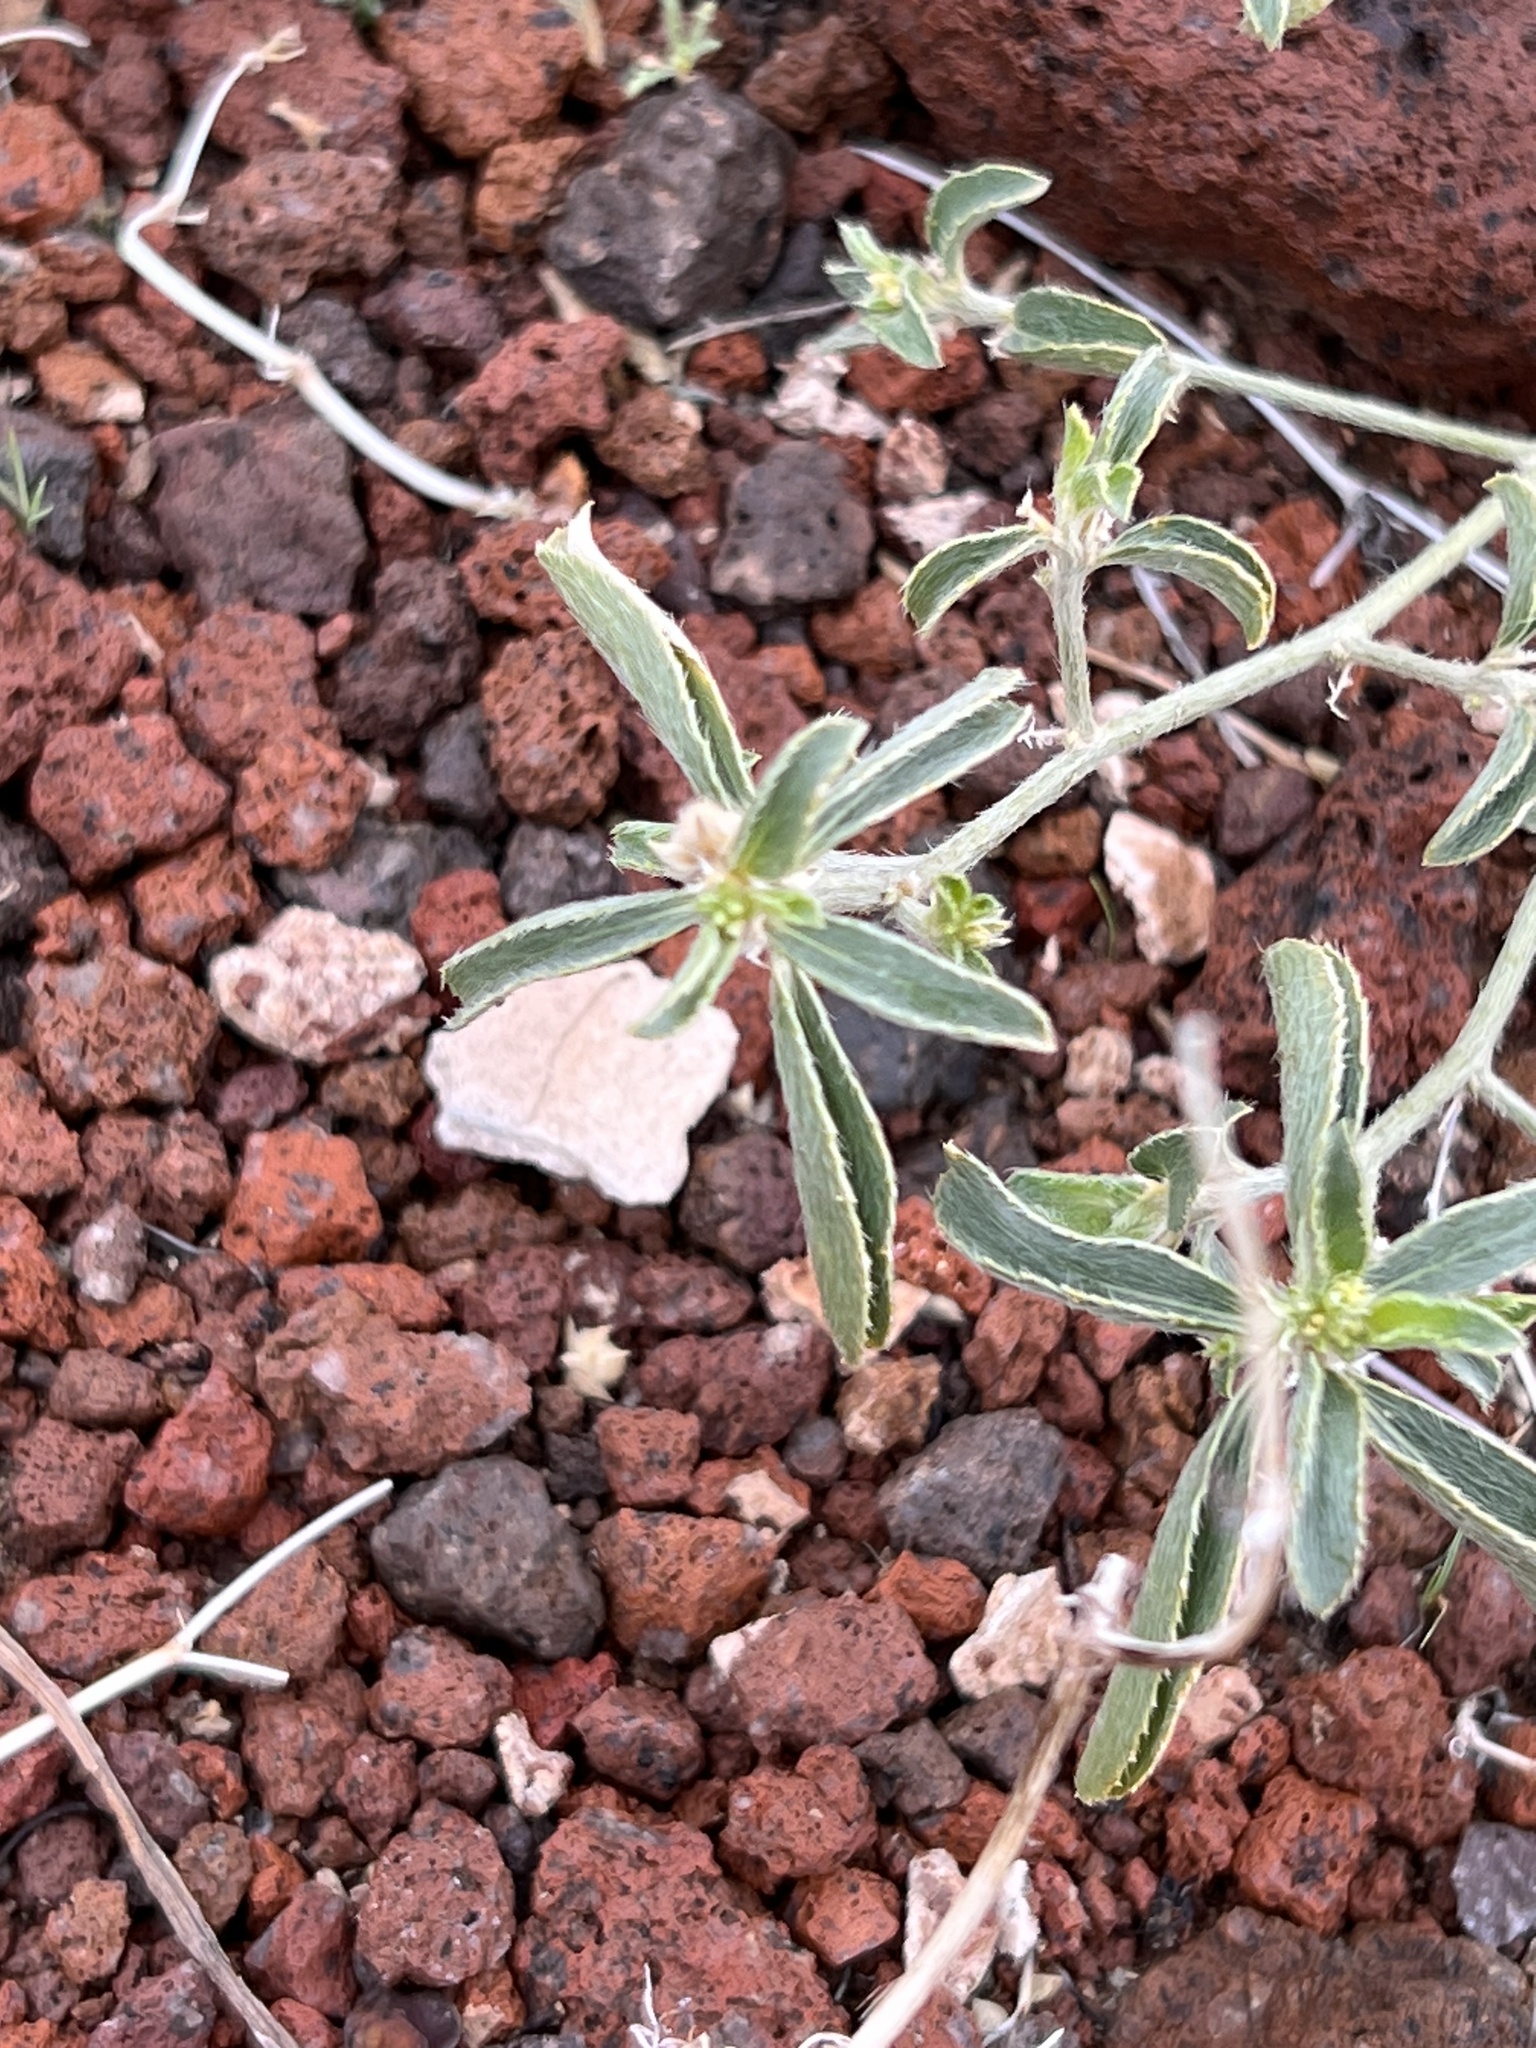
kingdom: Plantae
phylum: Tracheophyta
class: Magnoliopsida
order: Malpighiales
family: Euphorbiaceae
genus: Ditaxis
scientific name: Ditaxis serrata
